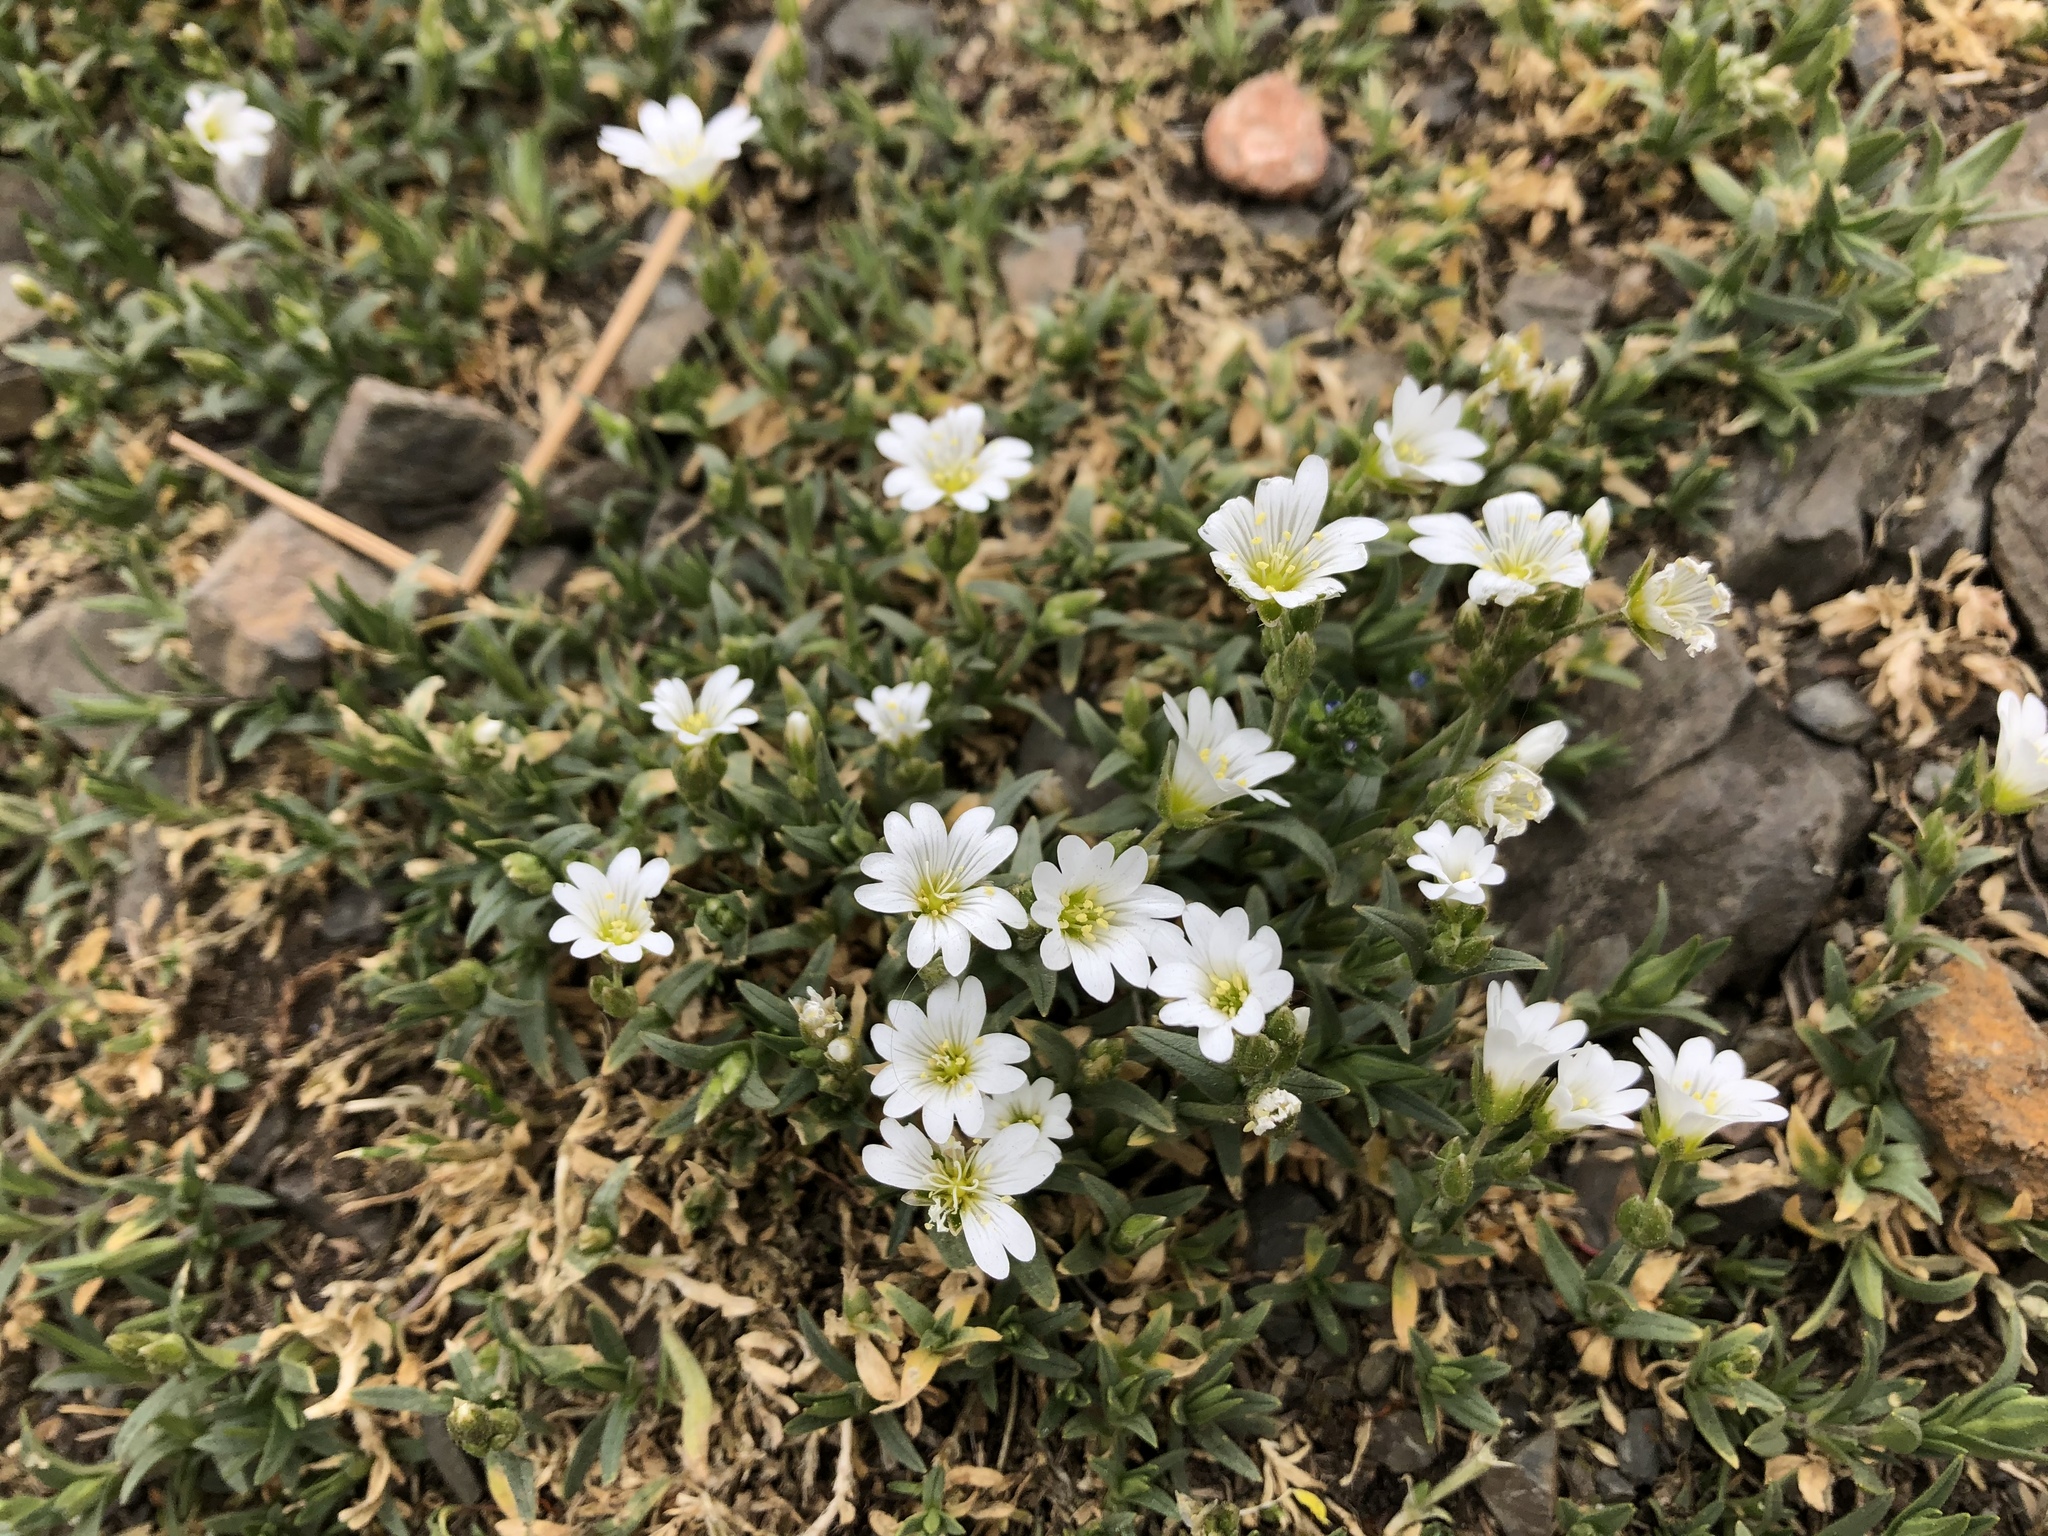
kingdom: Plantae
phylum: Tracheophyta
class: Magnoliopsida
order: Caryophyllales
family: Caryophyllaceae
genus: Cerastium
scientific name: Cerastium arvense
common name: Field mouse-ear
